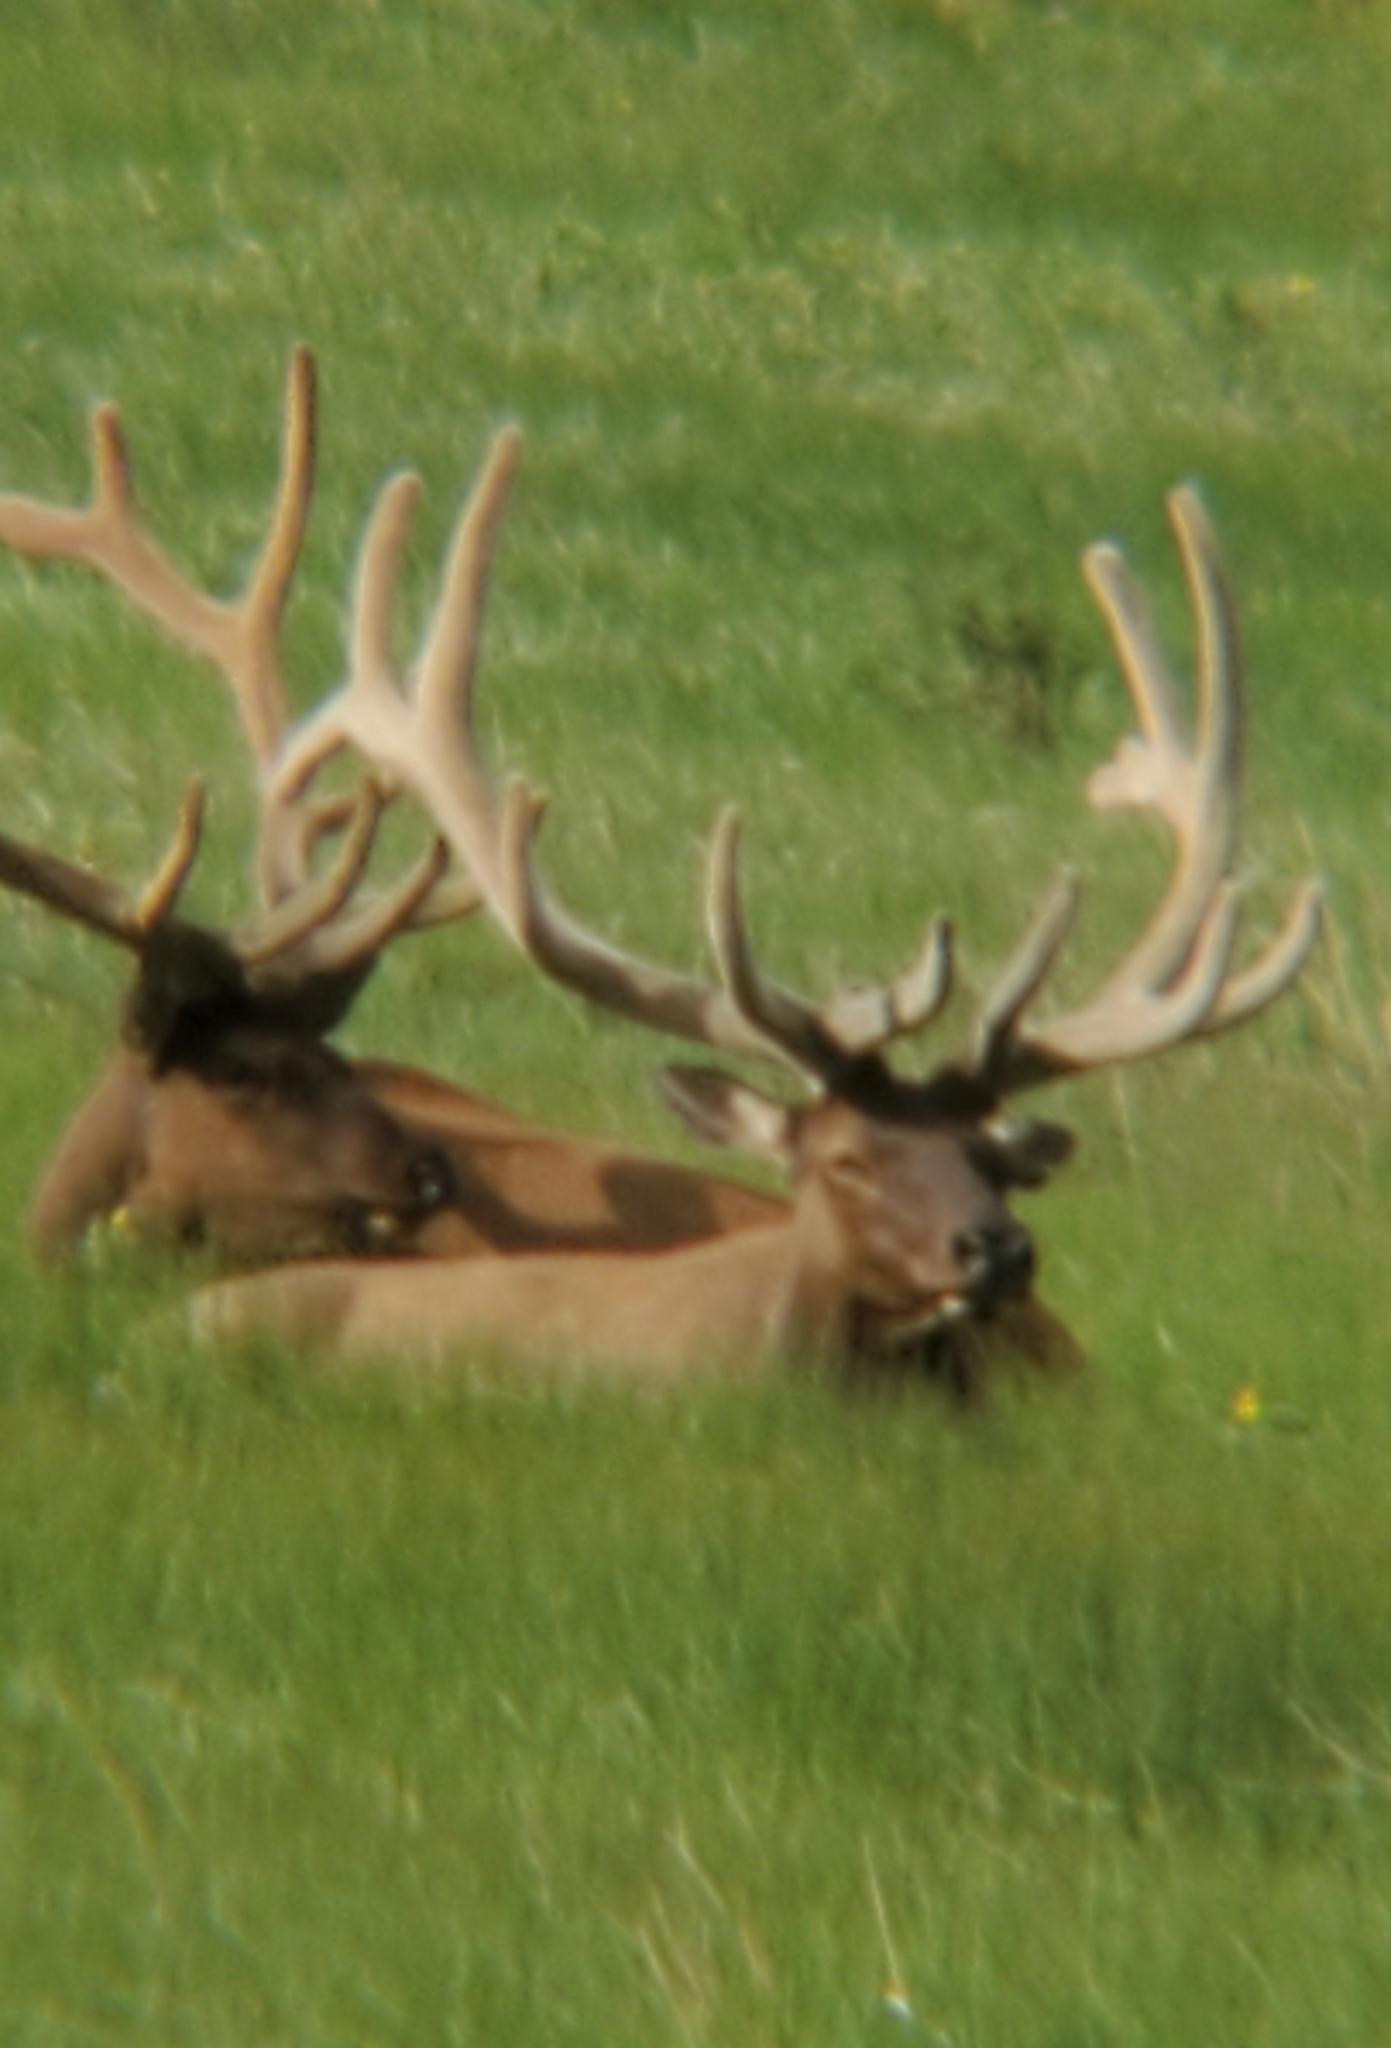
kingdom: Animalia
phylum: Chordata
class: Mammalia
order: Artiodactyla
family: Cervidae
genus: Cervus
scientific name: Cervus elaphus
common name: Red deer
